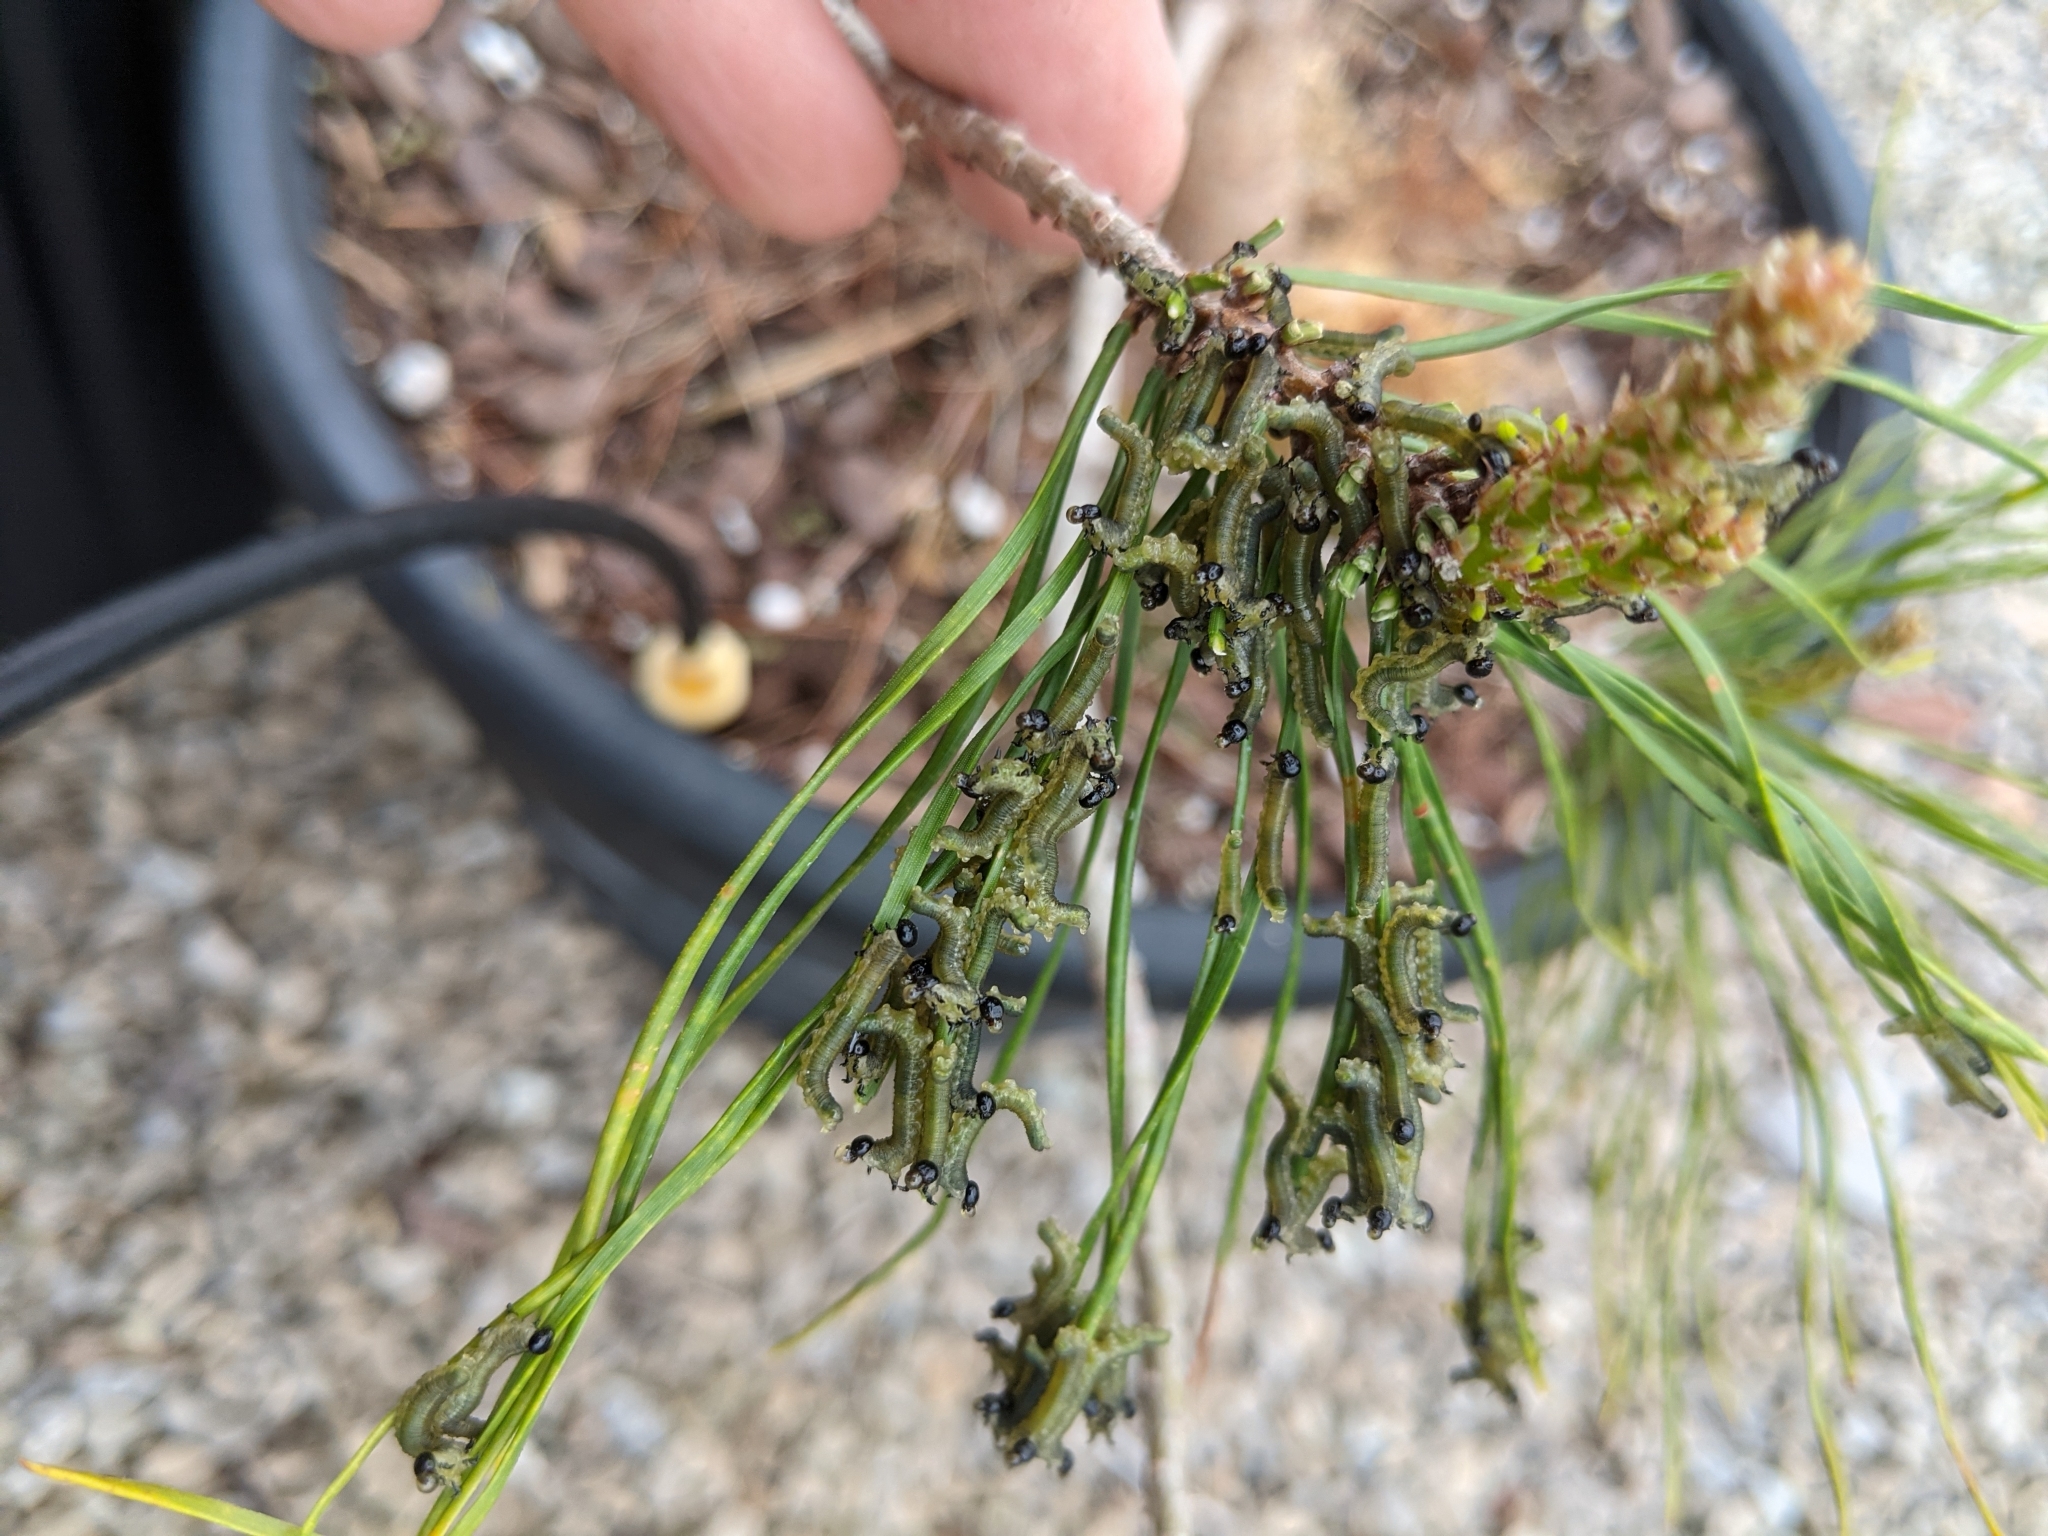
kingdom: Animalia
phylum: Arthropoda
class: Insecta
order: Hymenoptera
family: Diprionidae
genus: Neodiprion
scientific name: Neodiprion sertifer
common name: European pine sawfly
